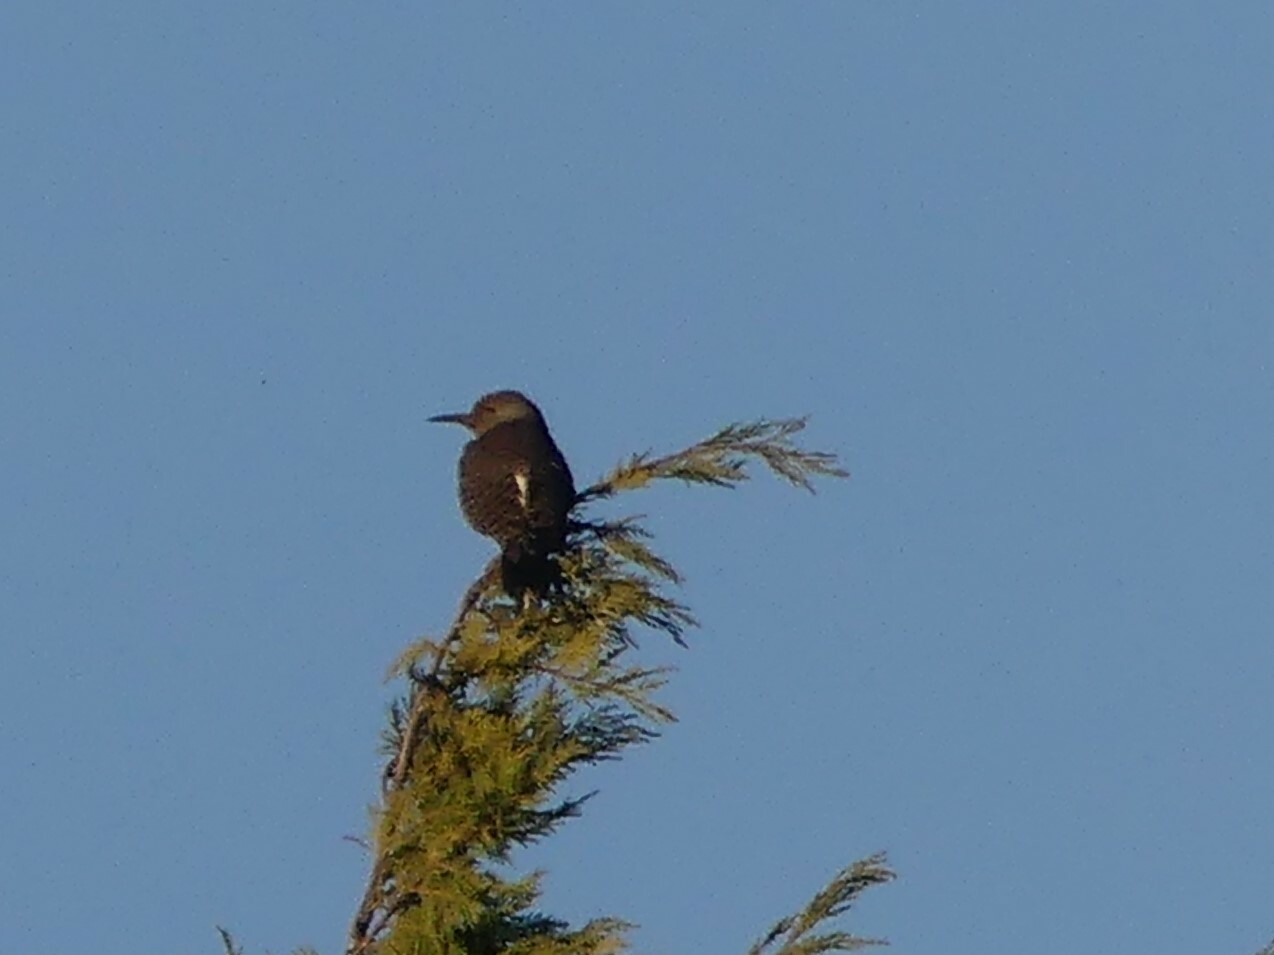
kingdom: Animalia
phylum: Chordata
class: Aves
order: Piciformes
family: Picidae
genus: Colaptes
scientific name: Colaptes auratus
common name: Northern flicker
